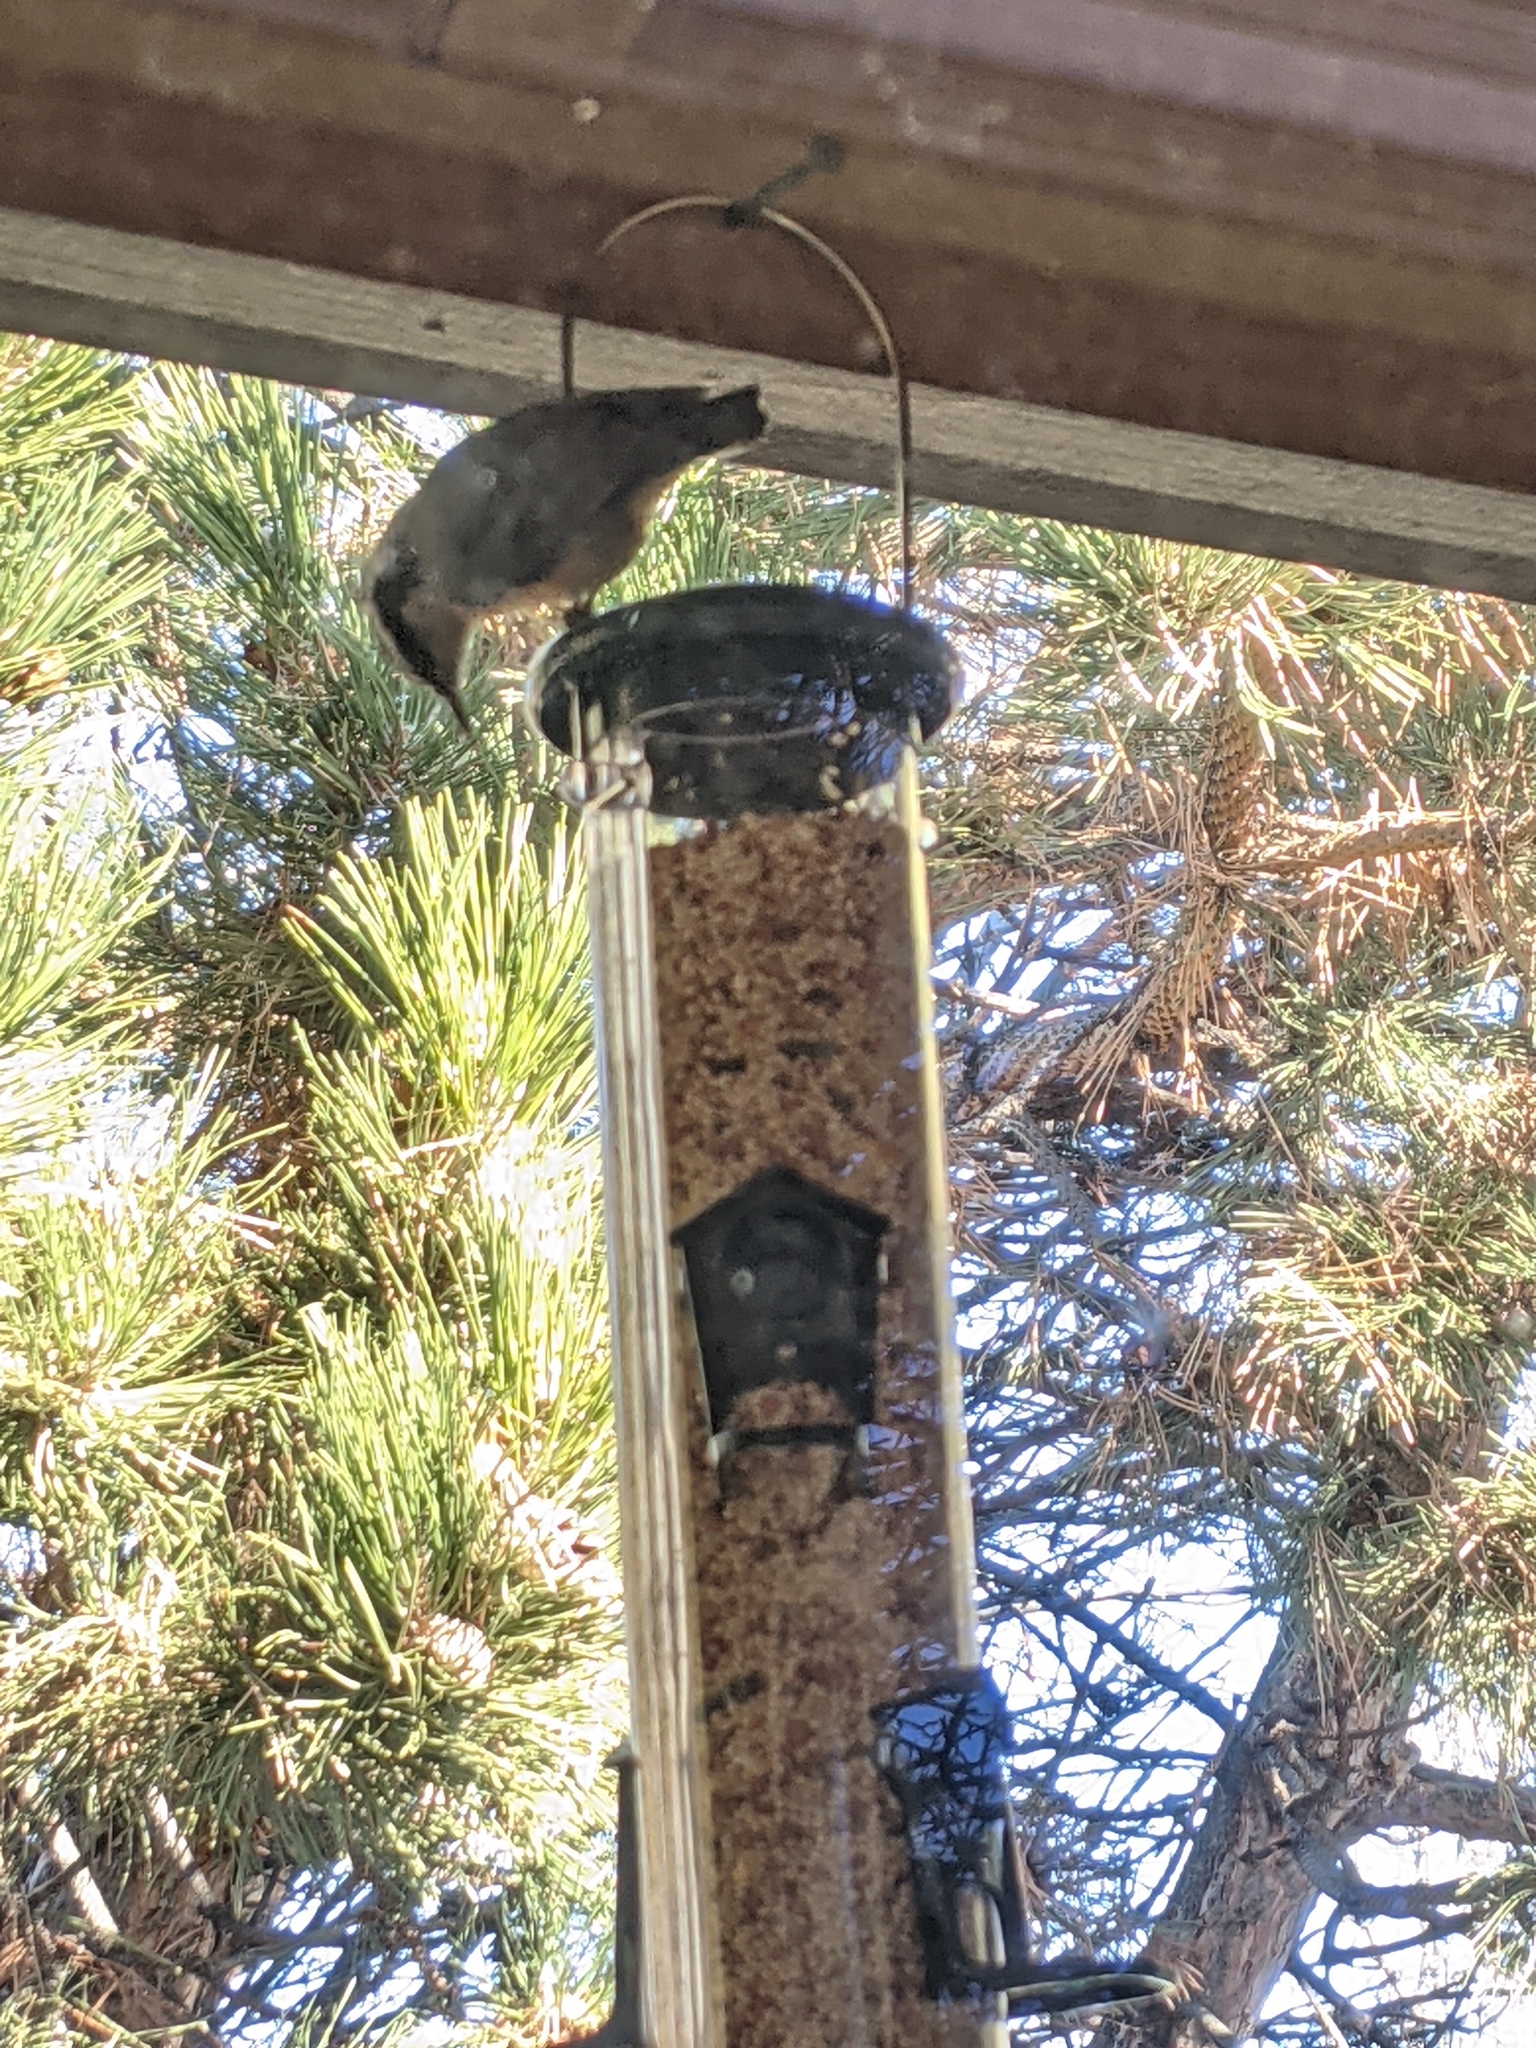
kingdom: Animalia
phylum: Chordata
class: Aves
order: Passeriformes
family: Sittidae
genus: Sitta
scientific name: Sitta canadensis
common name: Red-breasted nuthatch
